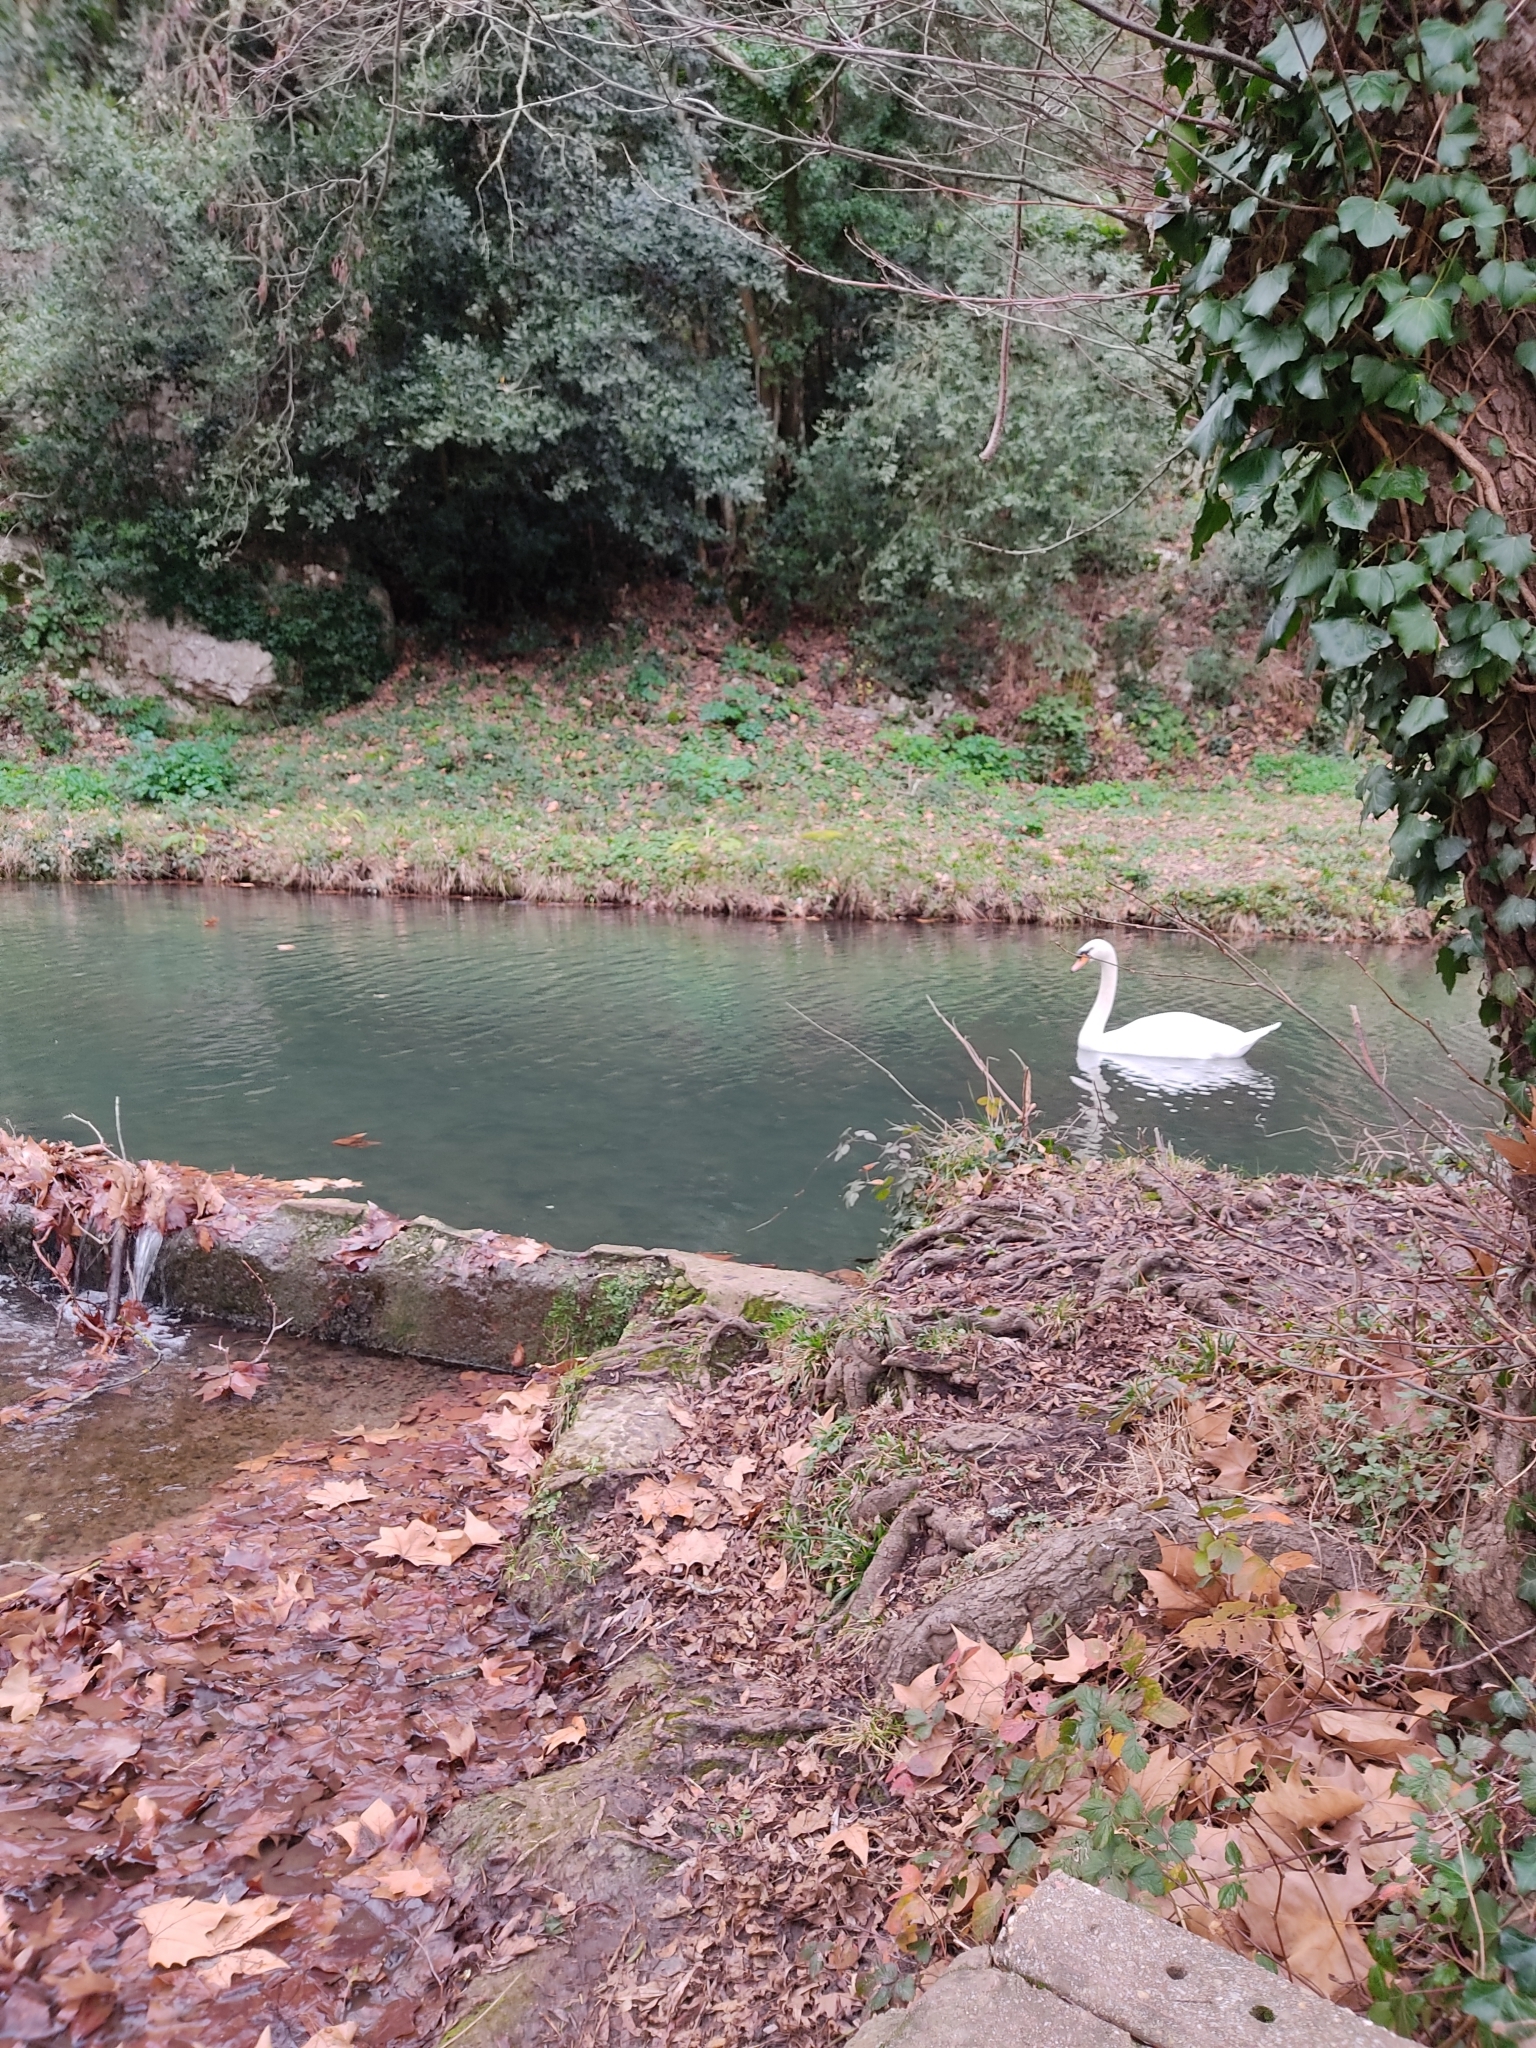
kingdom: Animalia
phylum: Chordata
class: Aves
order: Anseriformes
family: Anatidae
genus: Cygnus
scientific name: Cygnus olor
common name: Mute swan
